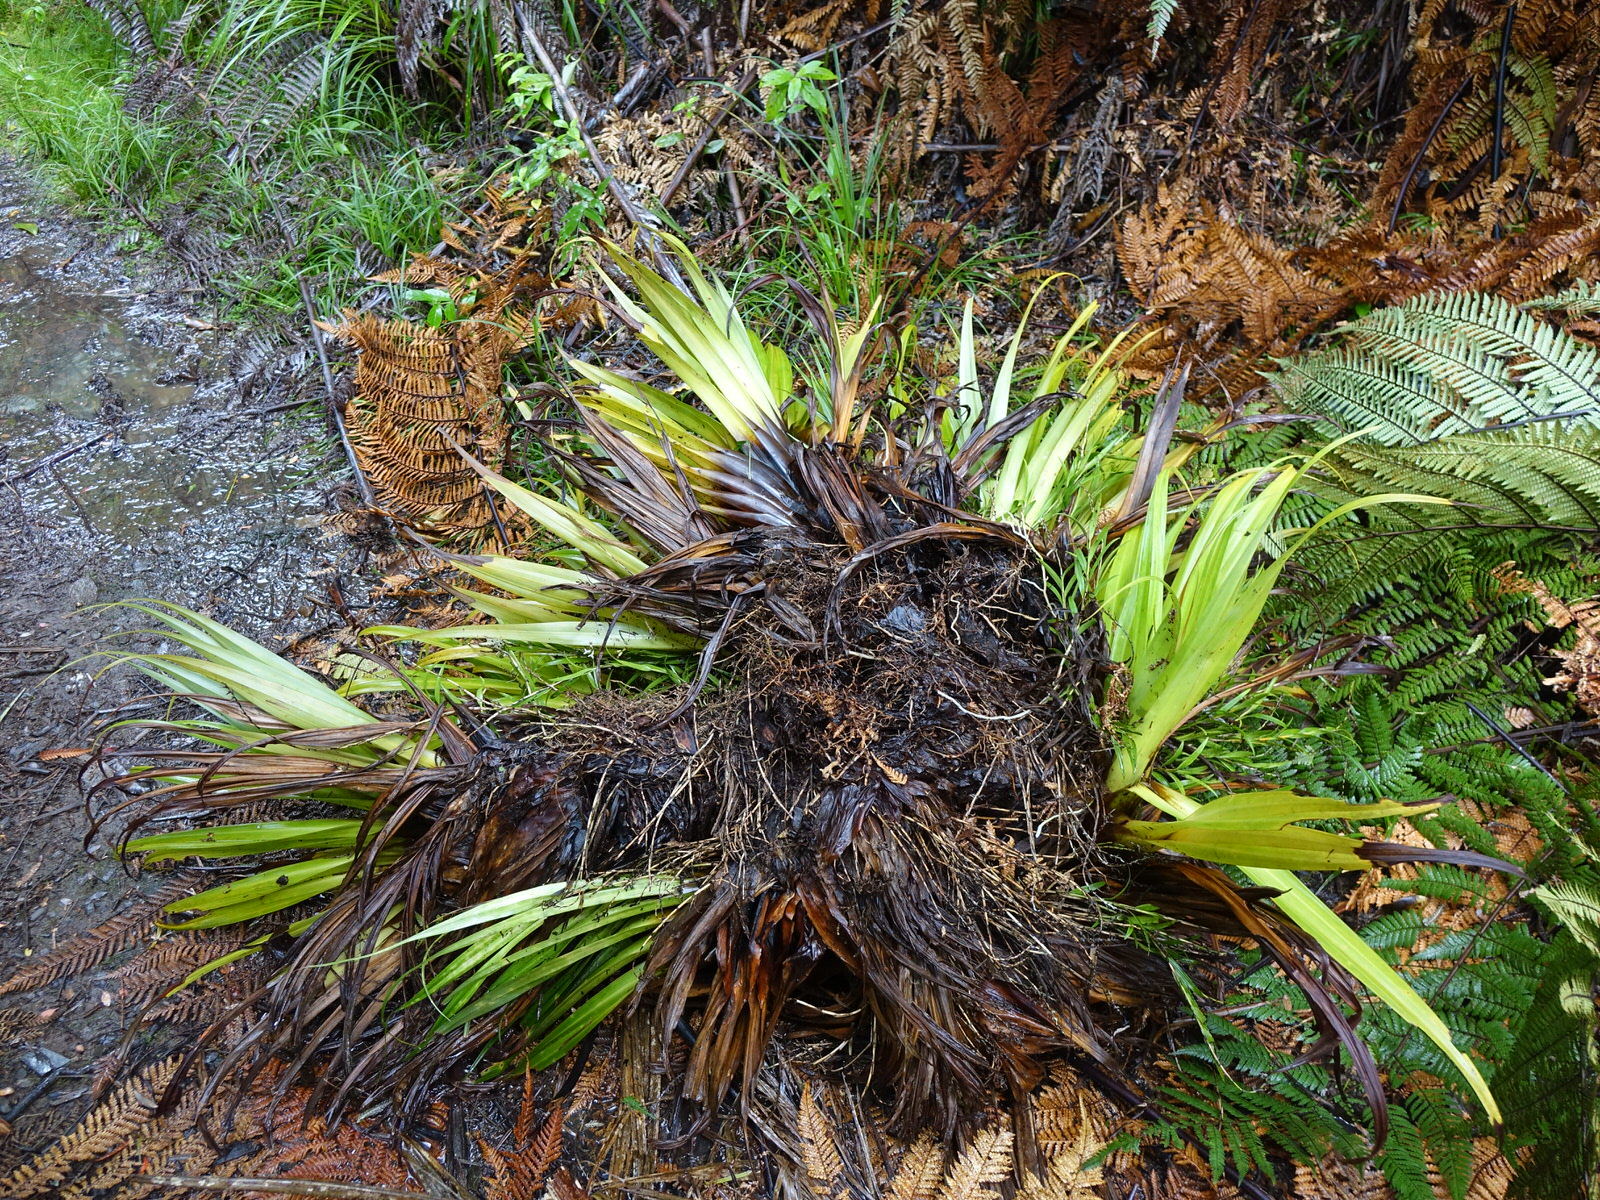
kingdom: Plantae
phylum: Tracheophyta
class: Liliopsida
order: Asparagales
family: Asteliaceae
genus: Astelia
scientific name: Astelia hastata
